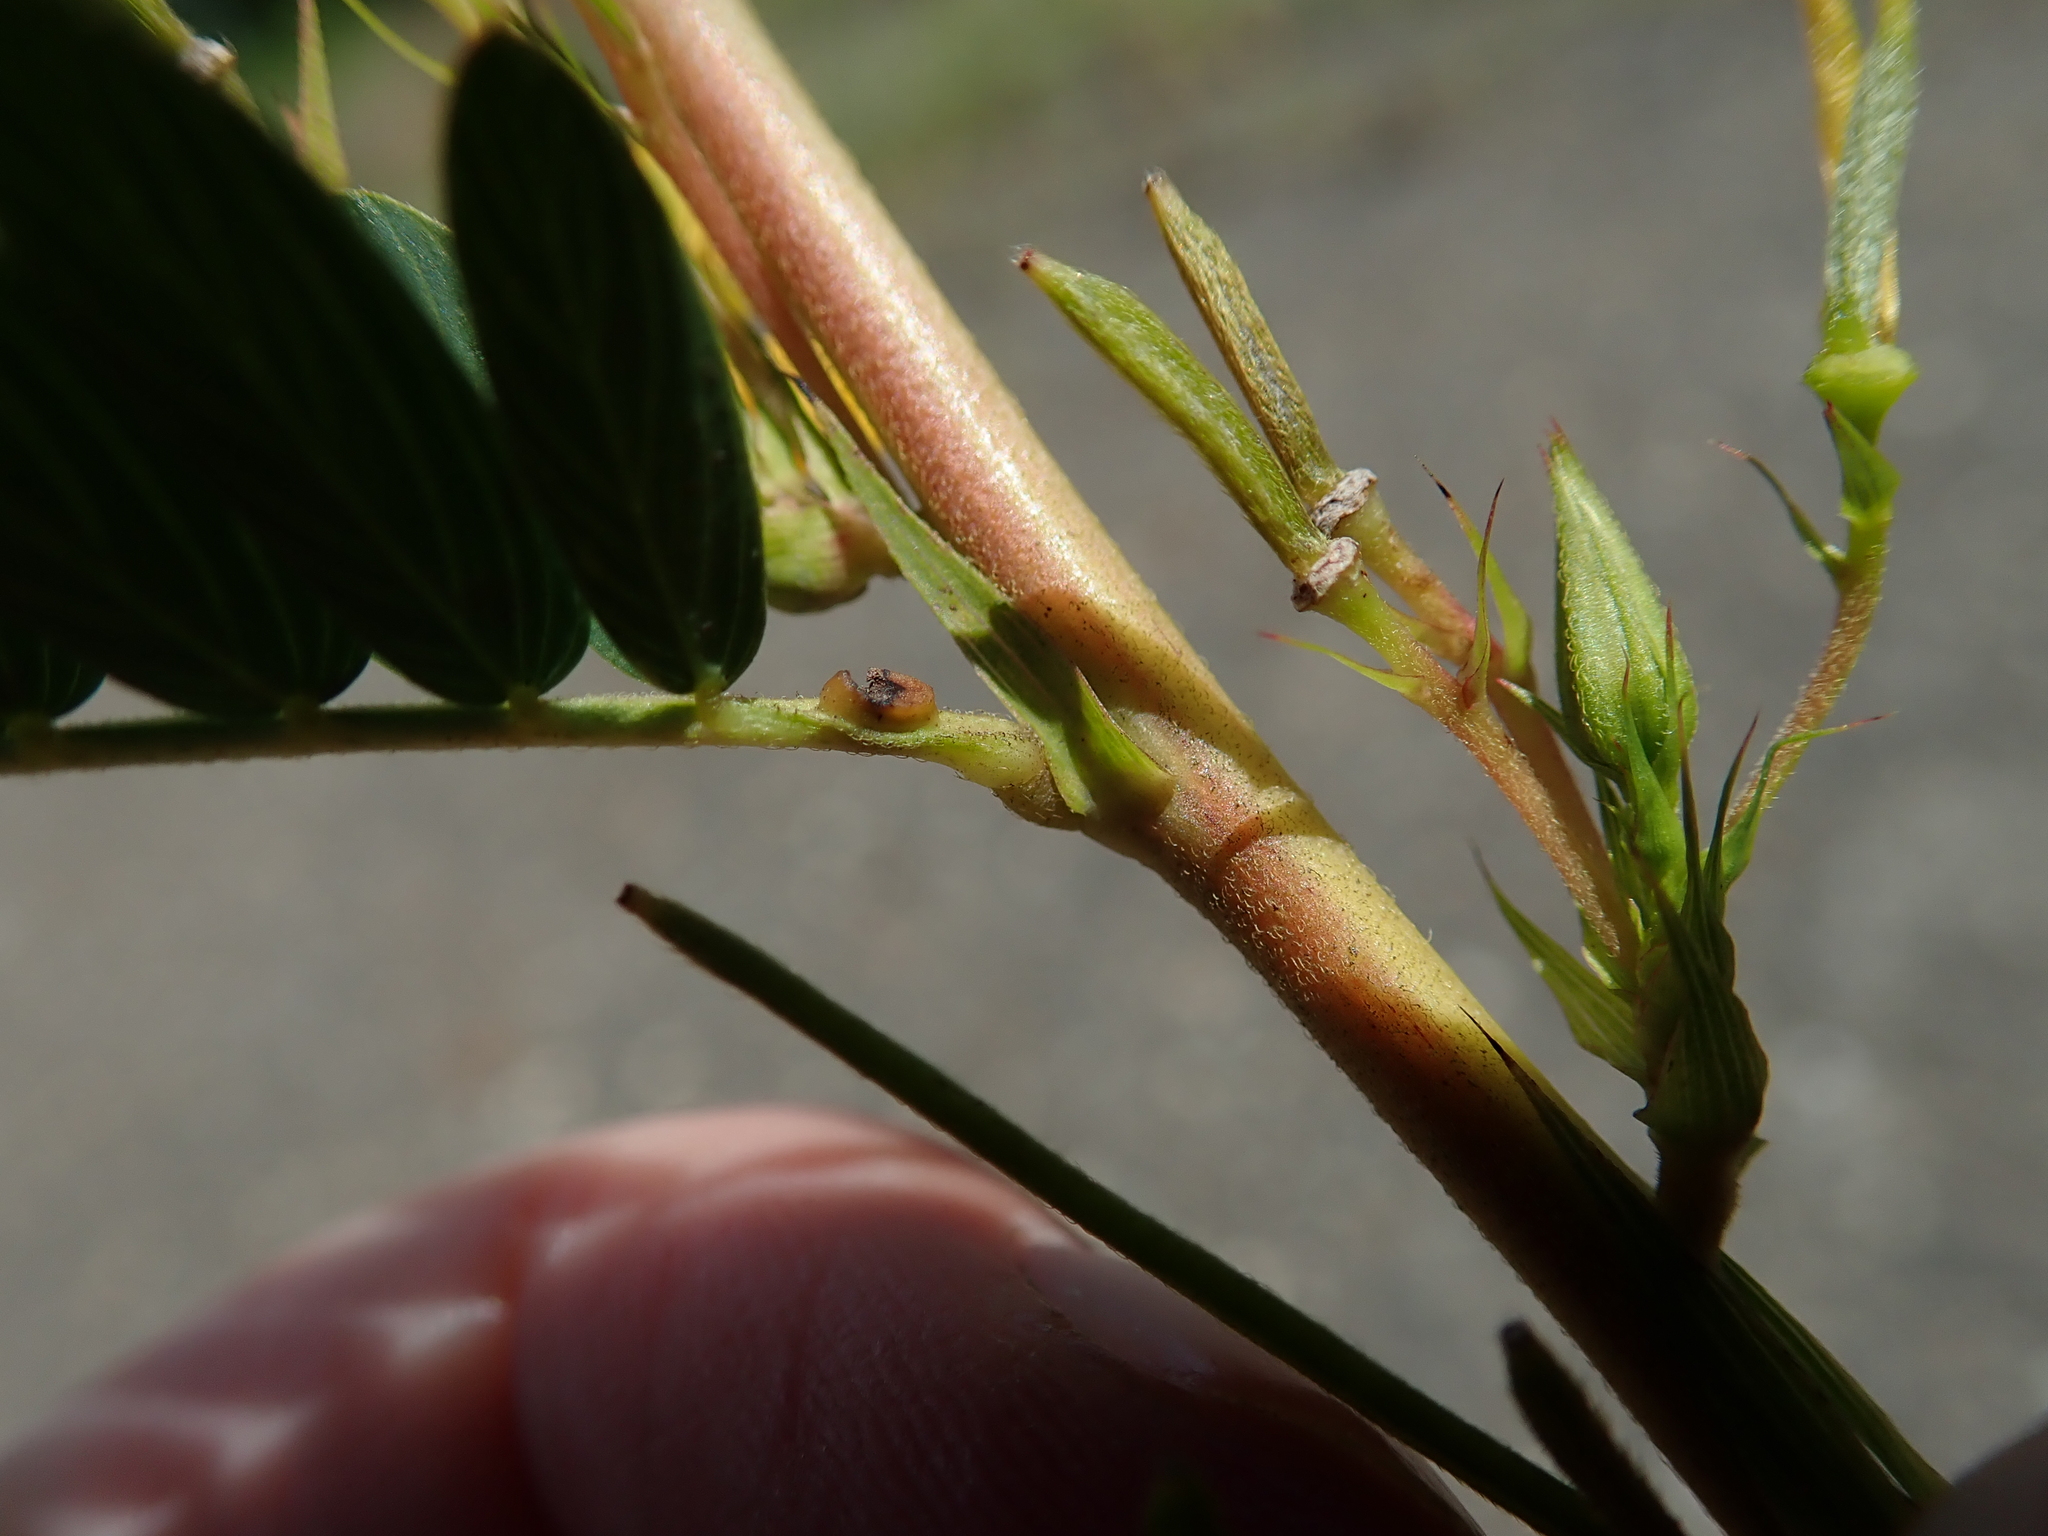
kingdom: Plantae
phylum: Tracheophyta
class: Magnoliopsida
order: Fabales
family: Fabaceae
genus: Chamaecrista
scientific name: Chamaecrista fasciculata
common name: Golden cassia
